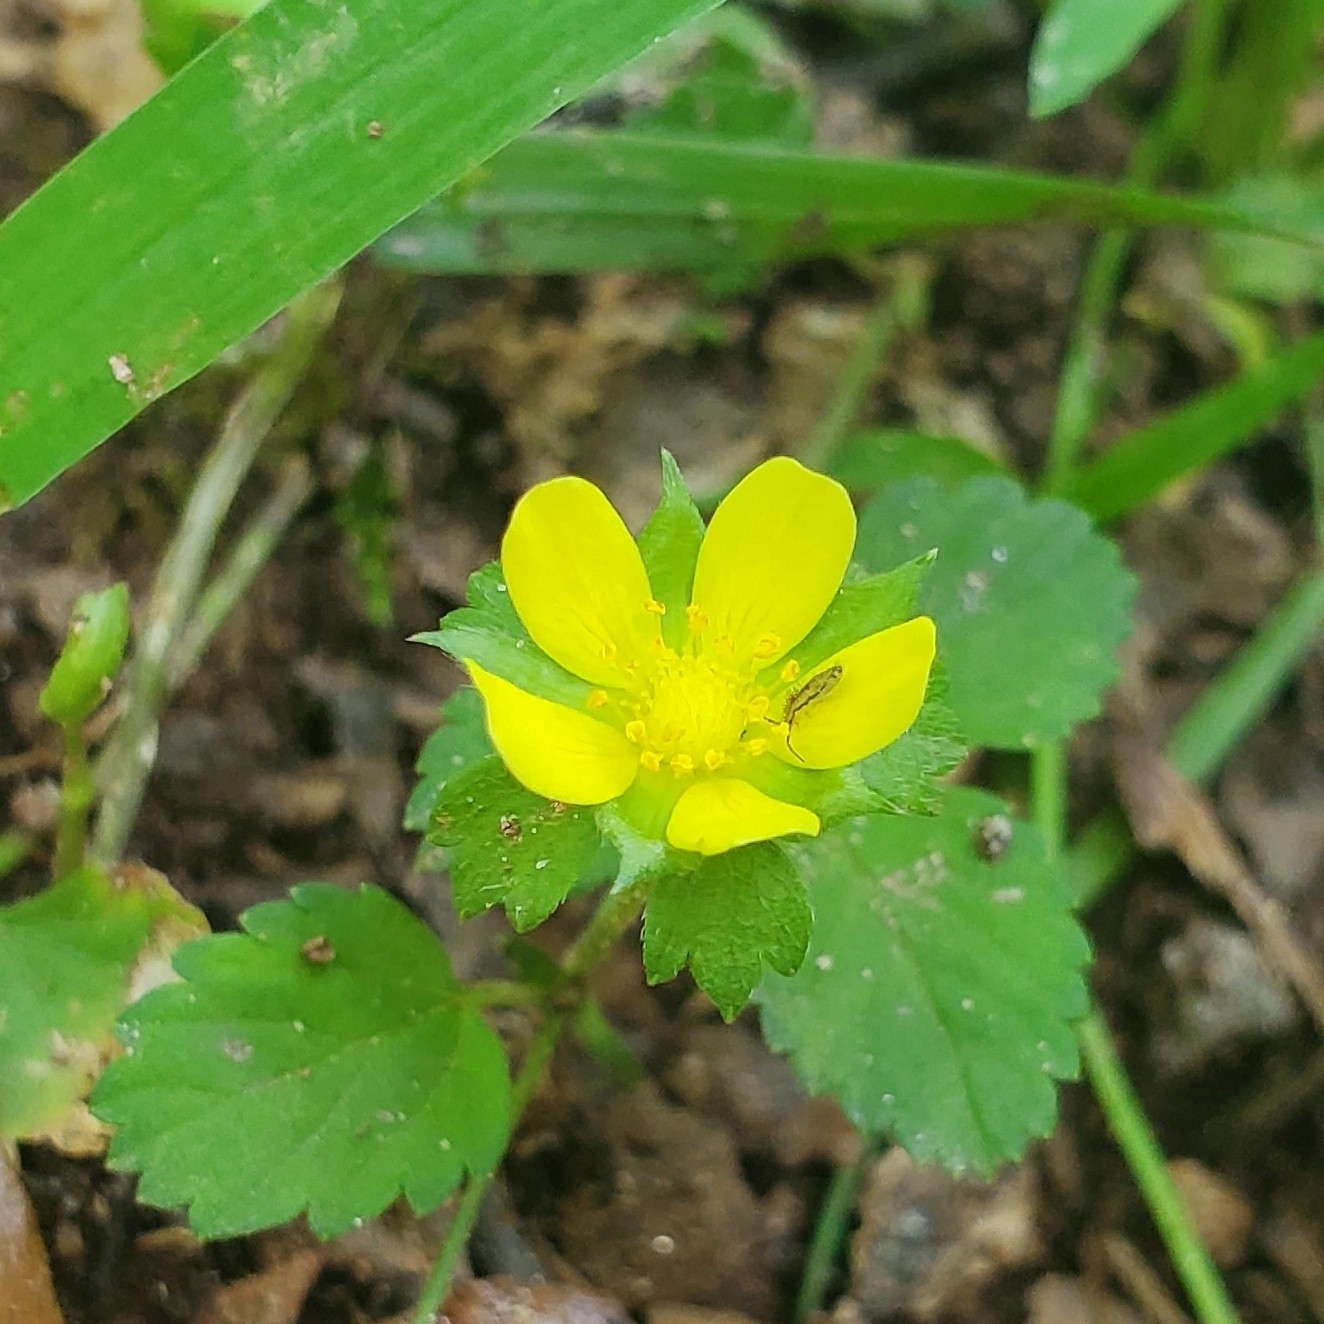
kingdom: Plantae
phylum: Tracheophyta
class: Magnoliopsida
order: Rosales
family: Rosaceae
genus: Potentilla
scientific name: Potentilla indica
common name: Yellow-flowered strawberry
